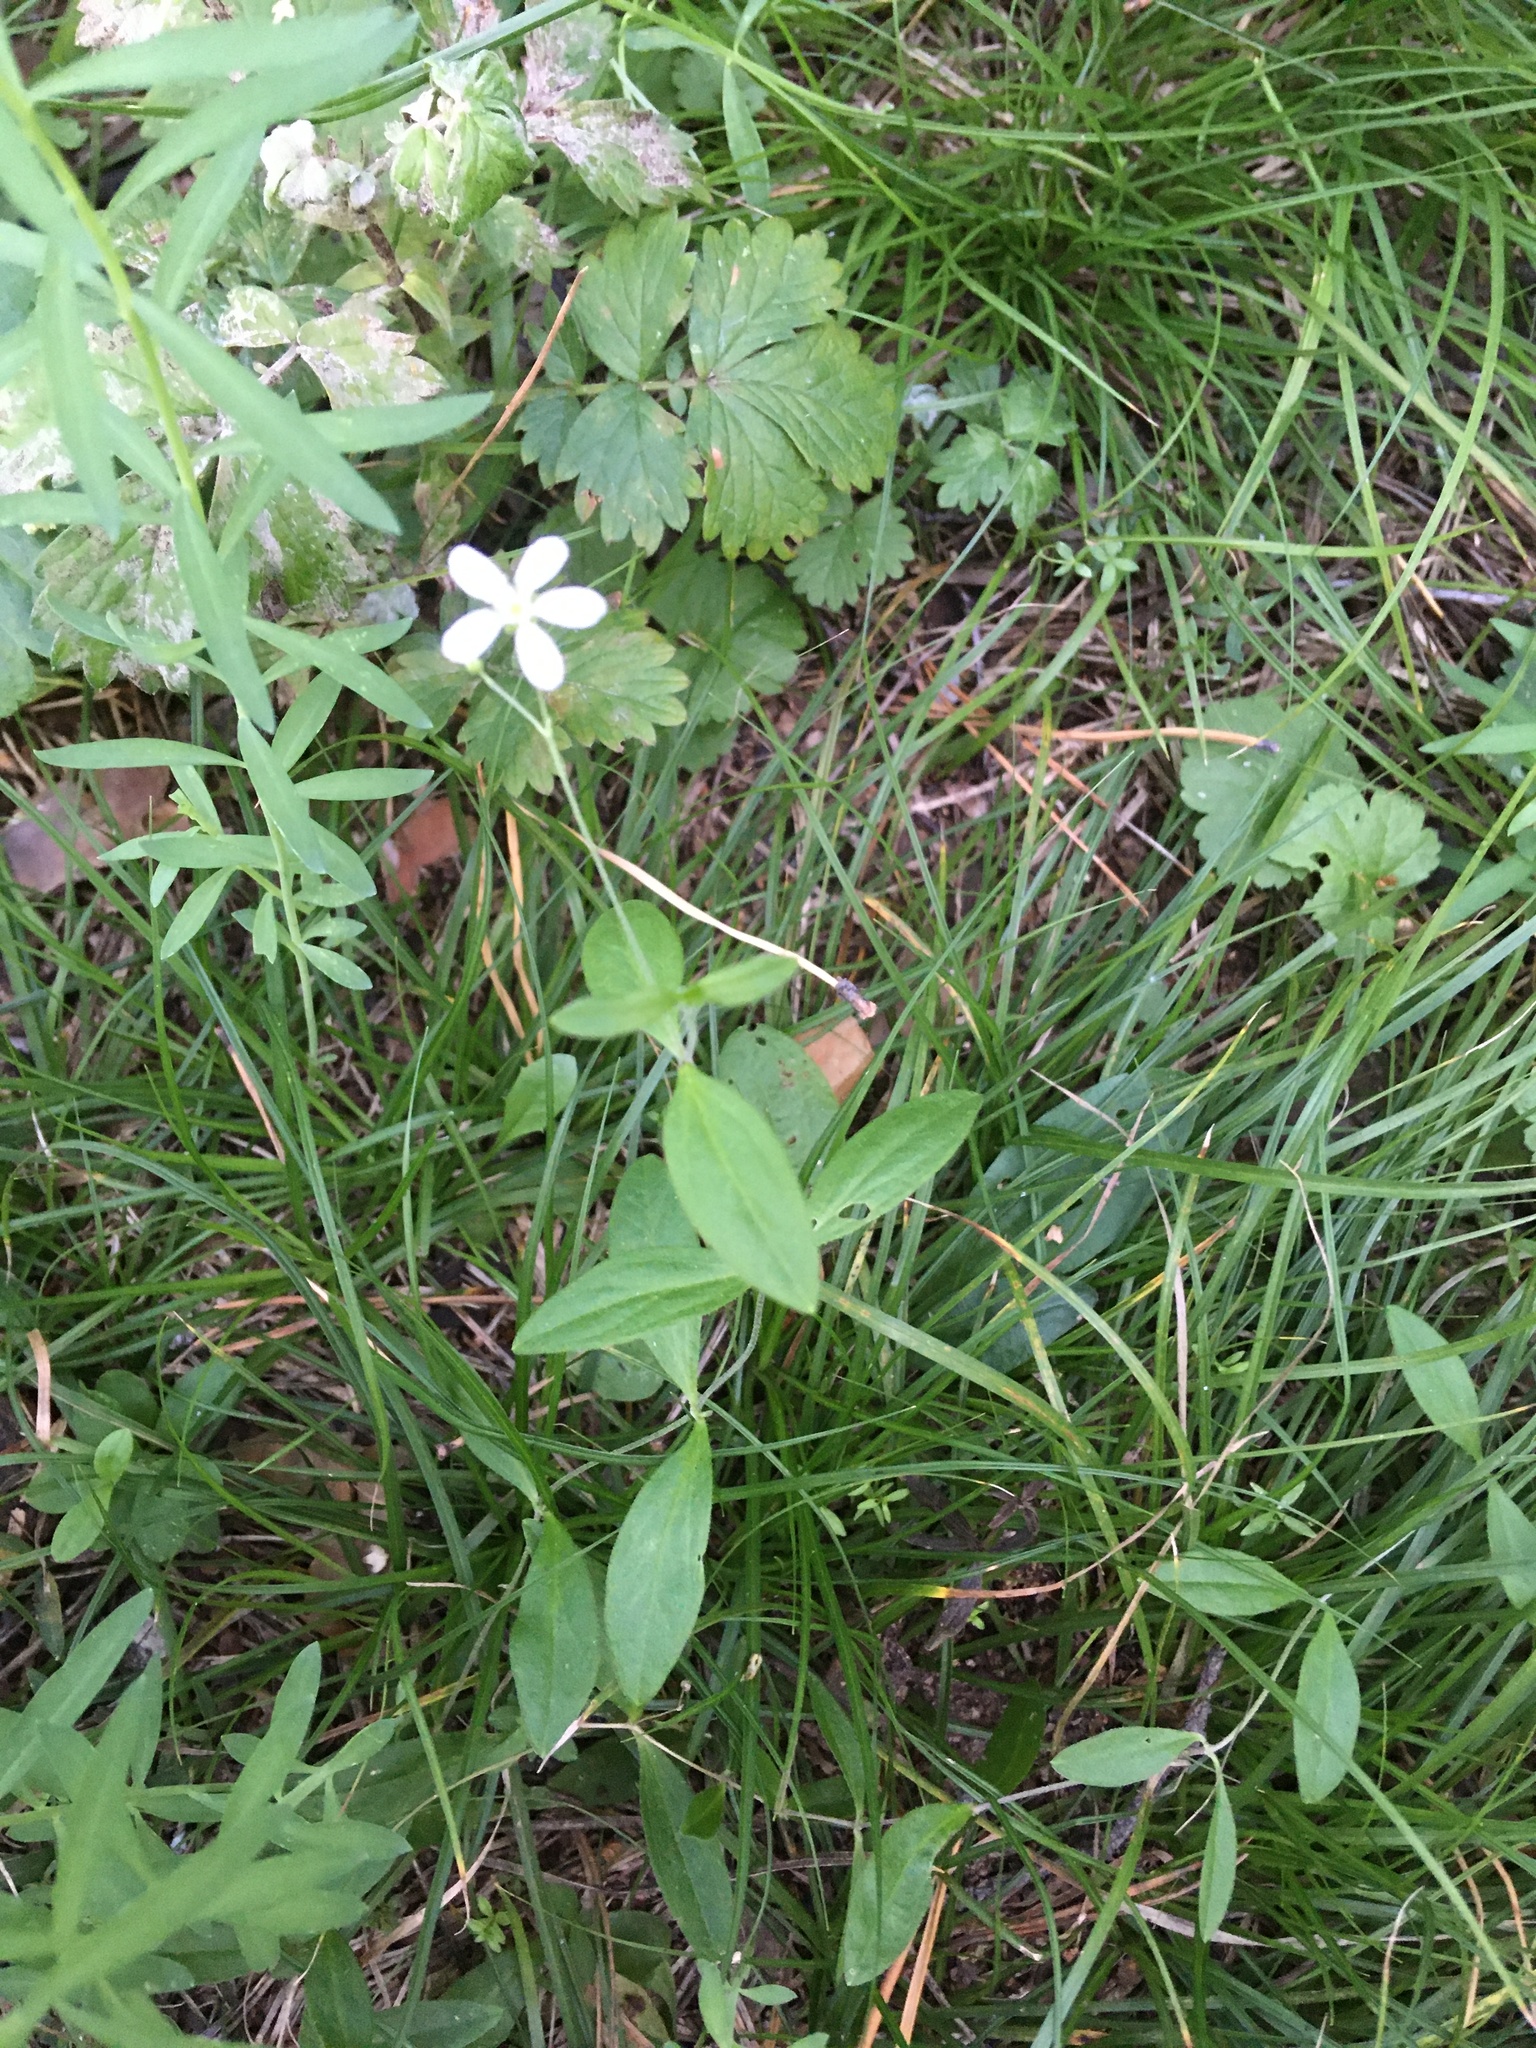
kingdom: Plantae
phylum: Tracheophyta
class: Magnoliopsida
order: Caryophyllales
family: Caryophyllaceae
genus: Moehringia
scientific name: Moehringia lateriflora
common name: Blunt-leaved sandwort
